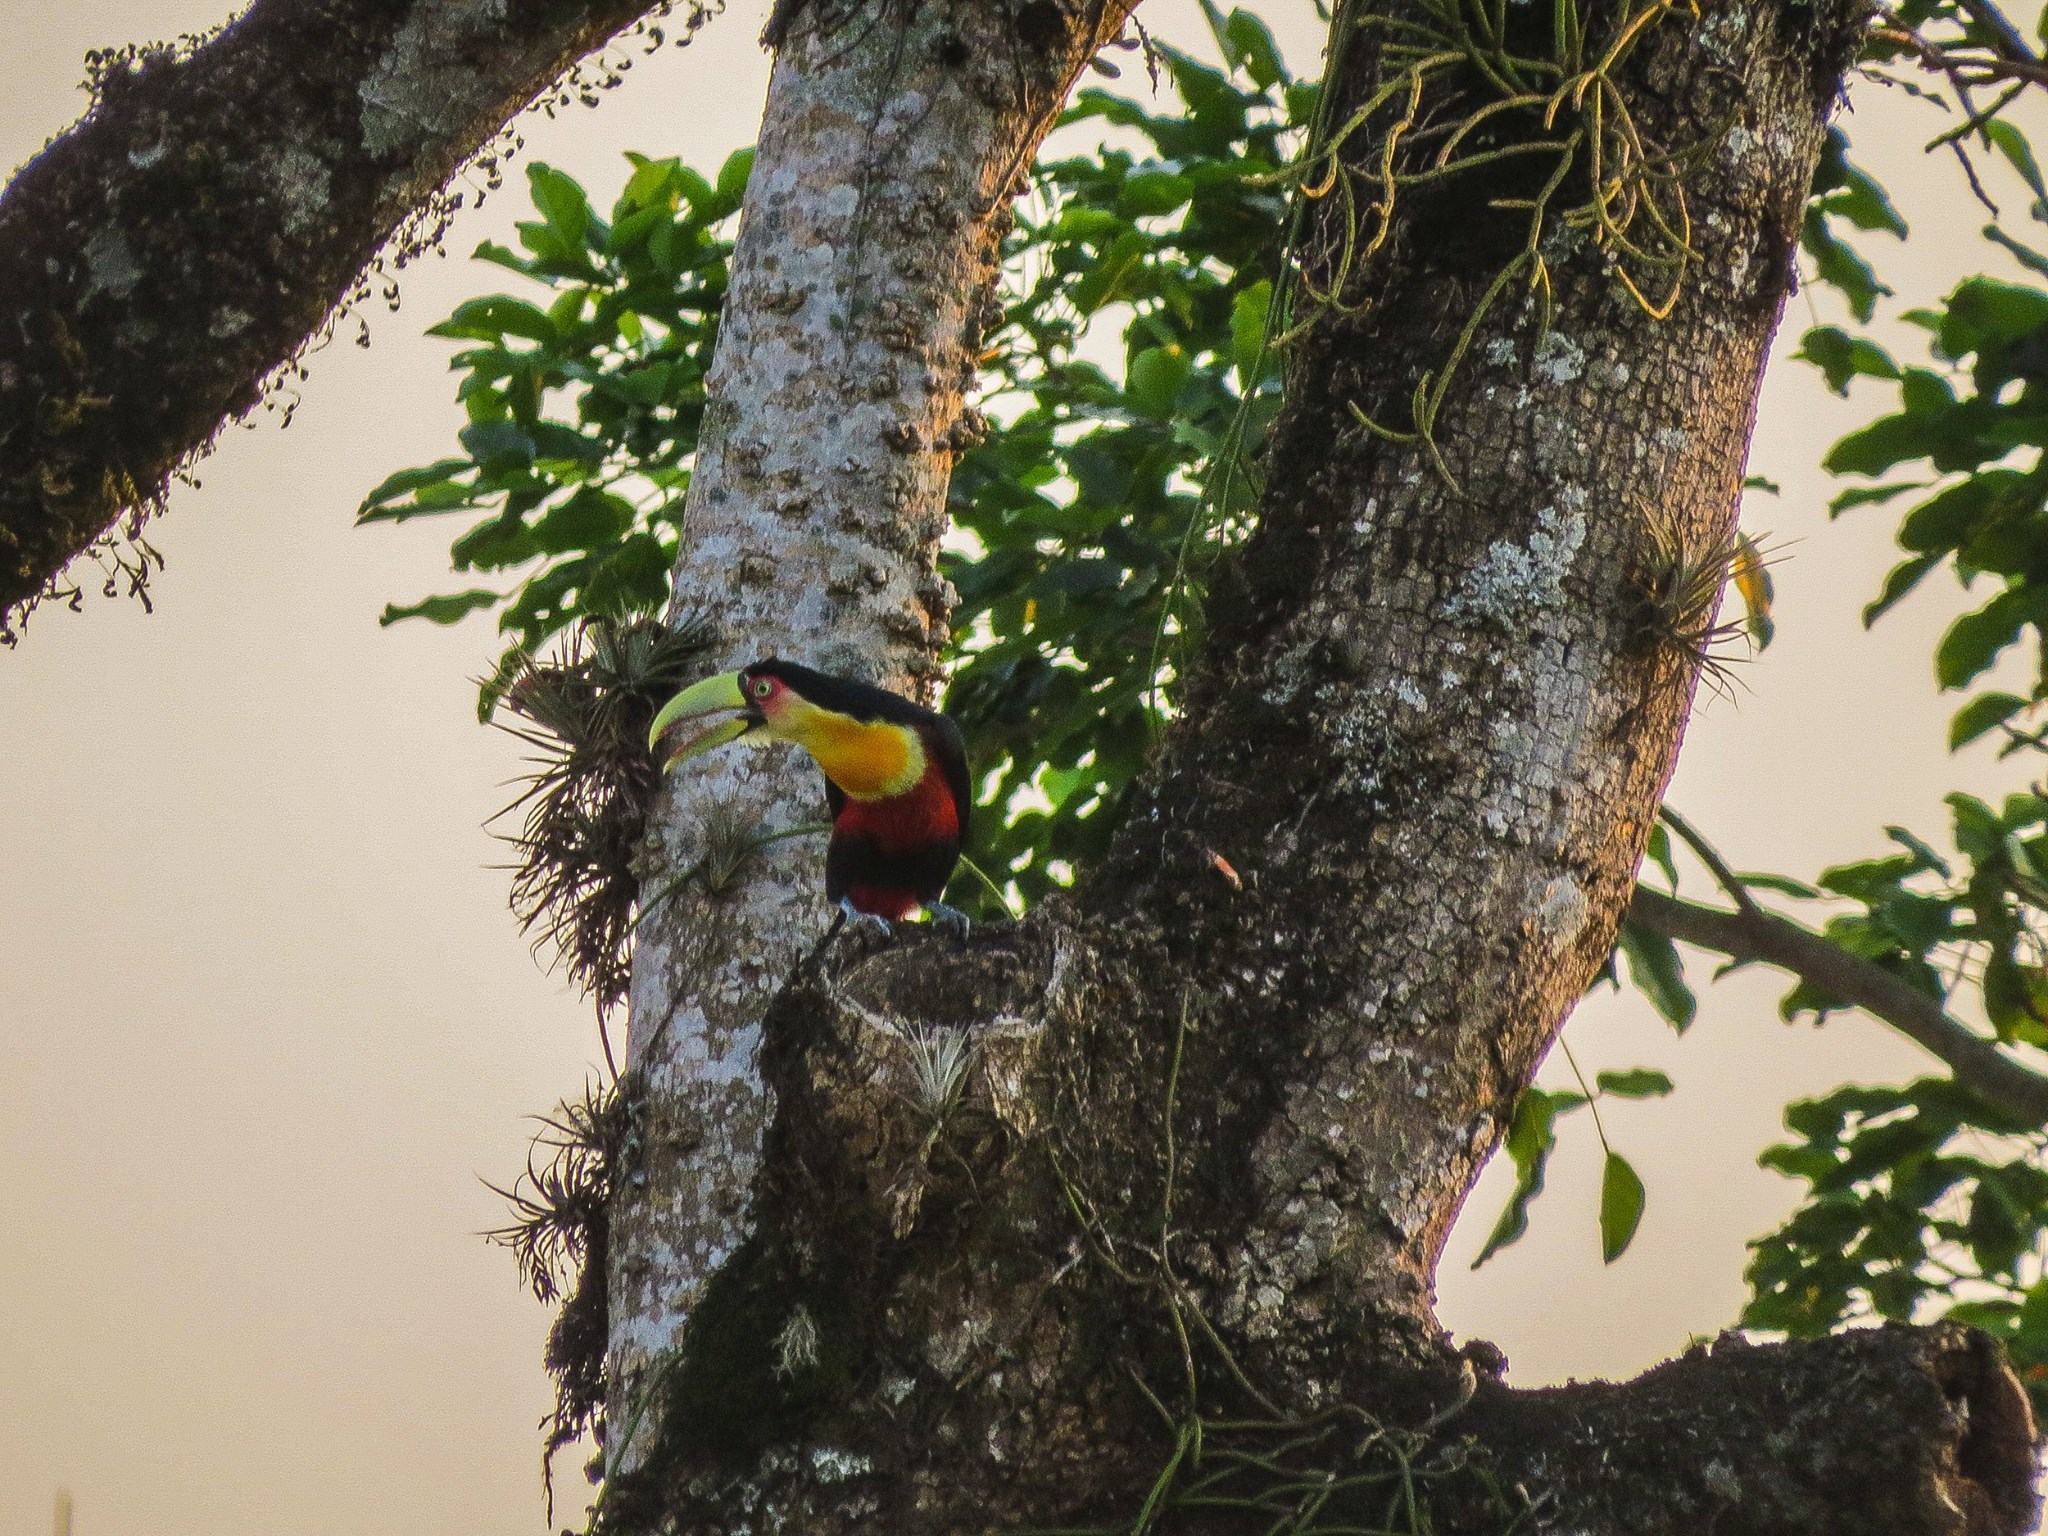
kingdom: Animalia
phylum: Chordata
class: Aves
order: Piciformes
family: Ramphastidae
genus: Ramphastos
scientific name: Ramphastos dicolorus
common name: Green-billed toucan
